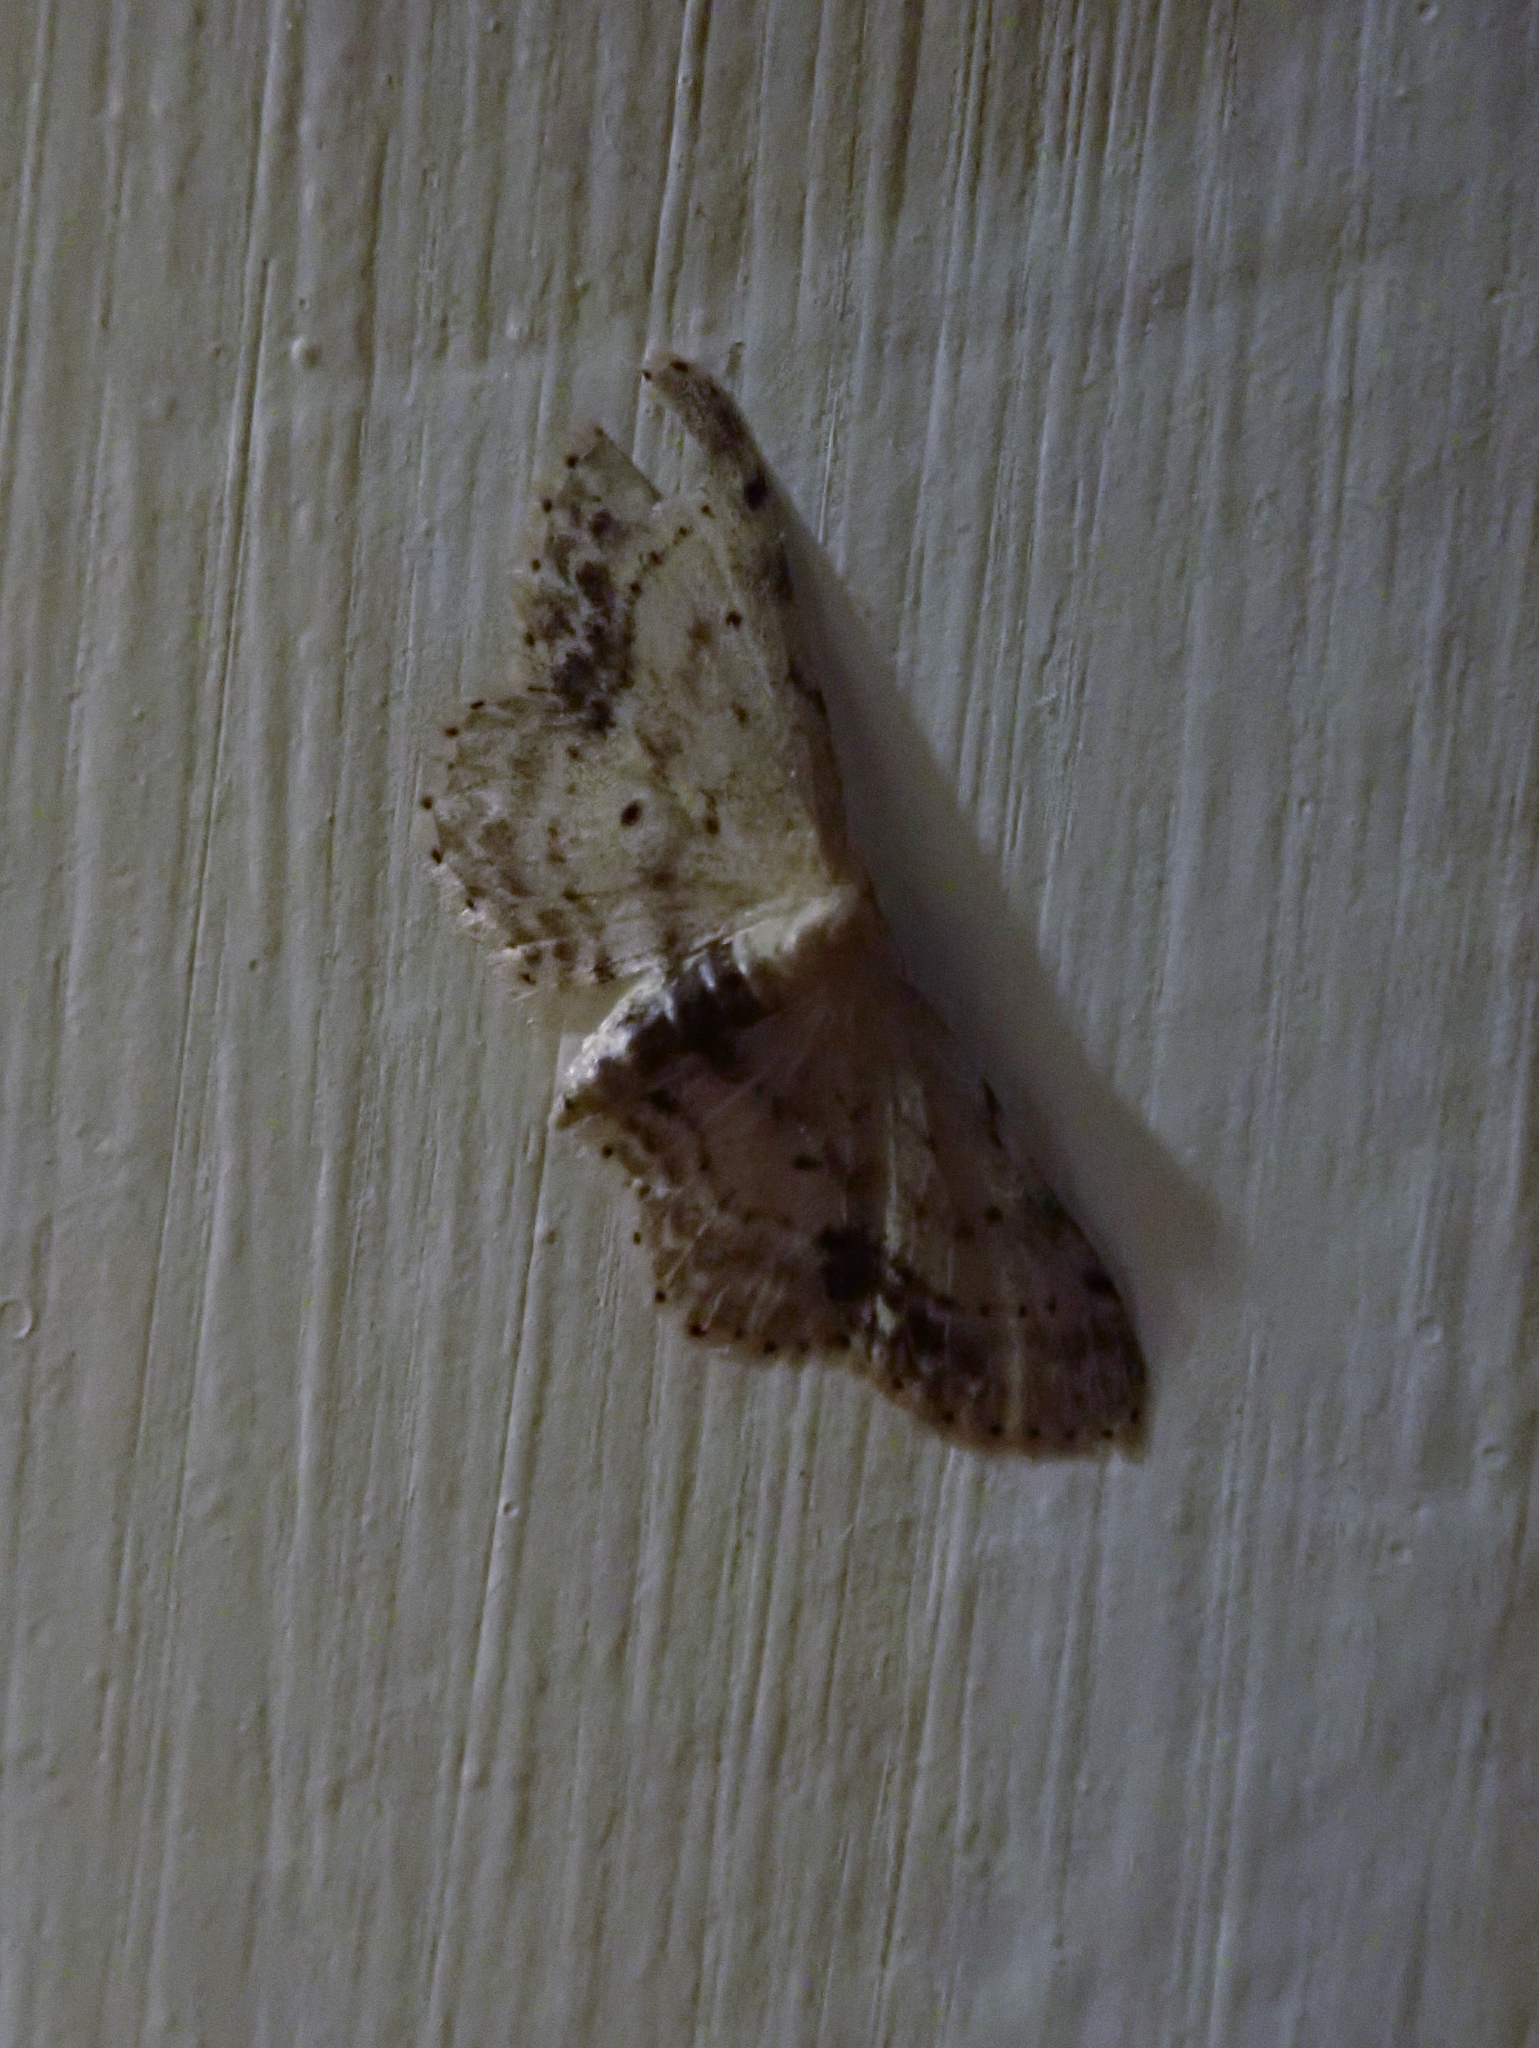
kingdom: Animalia
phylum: Arthropoda
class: Insecta
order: Lepidoptera
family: Geometridae
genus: Idaea
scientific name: Idaea dimidiata
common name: Single-dotted wave
